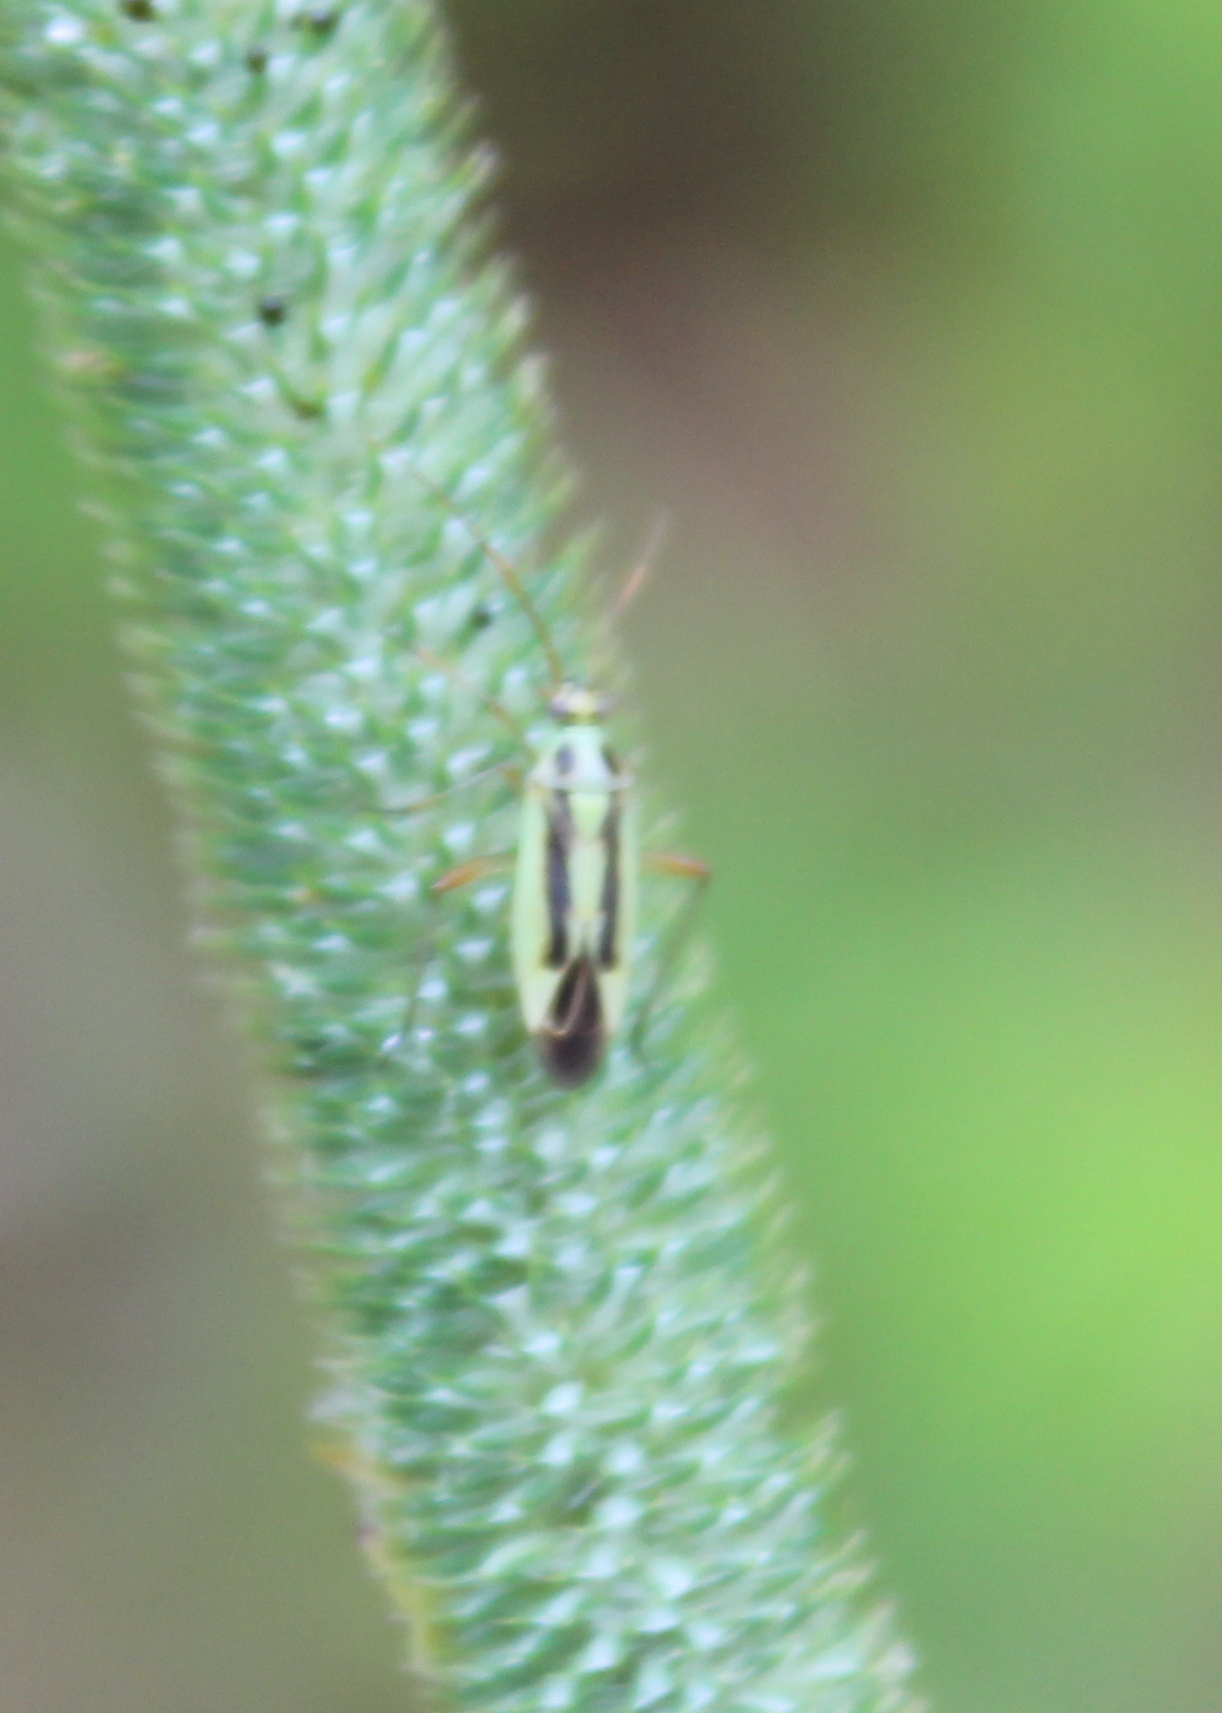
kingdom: Animalia
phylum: Arthropoda
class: Insecta
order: Hemiptera
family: Miridae
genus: Stenotus
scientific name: Stenotus binotatus
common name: Plant bug
